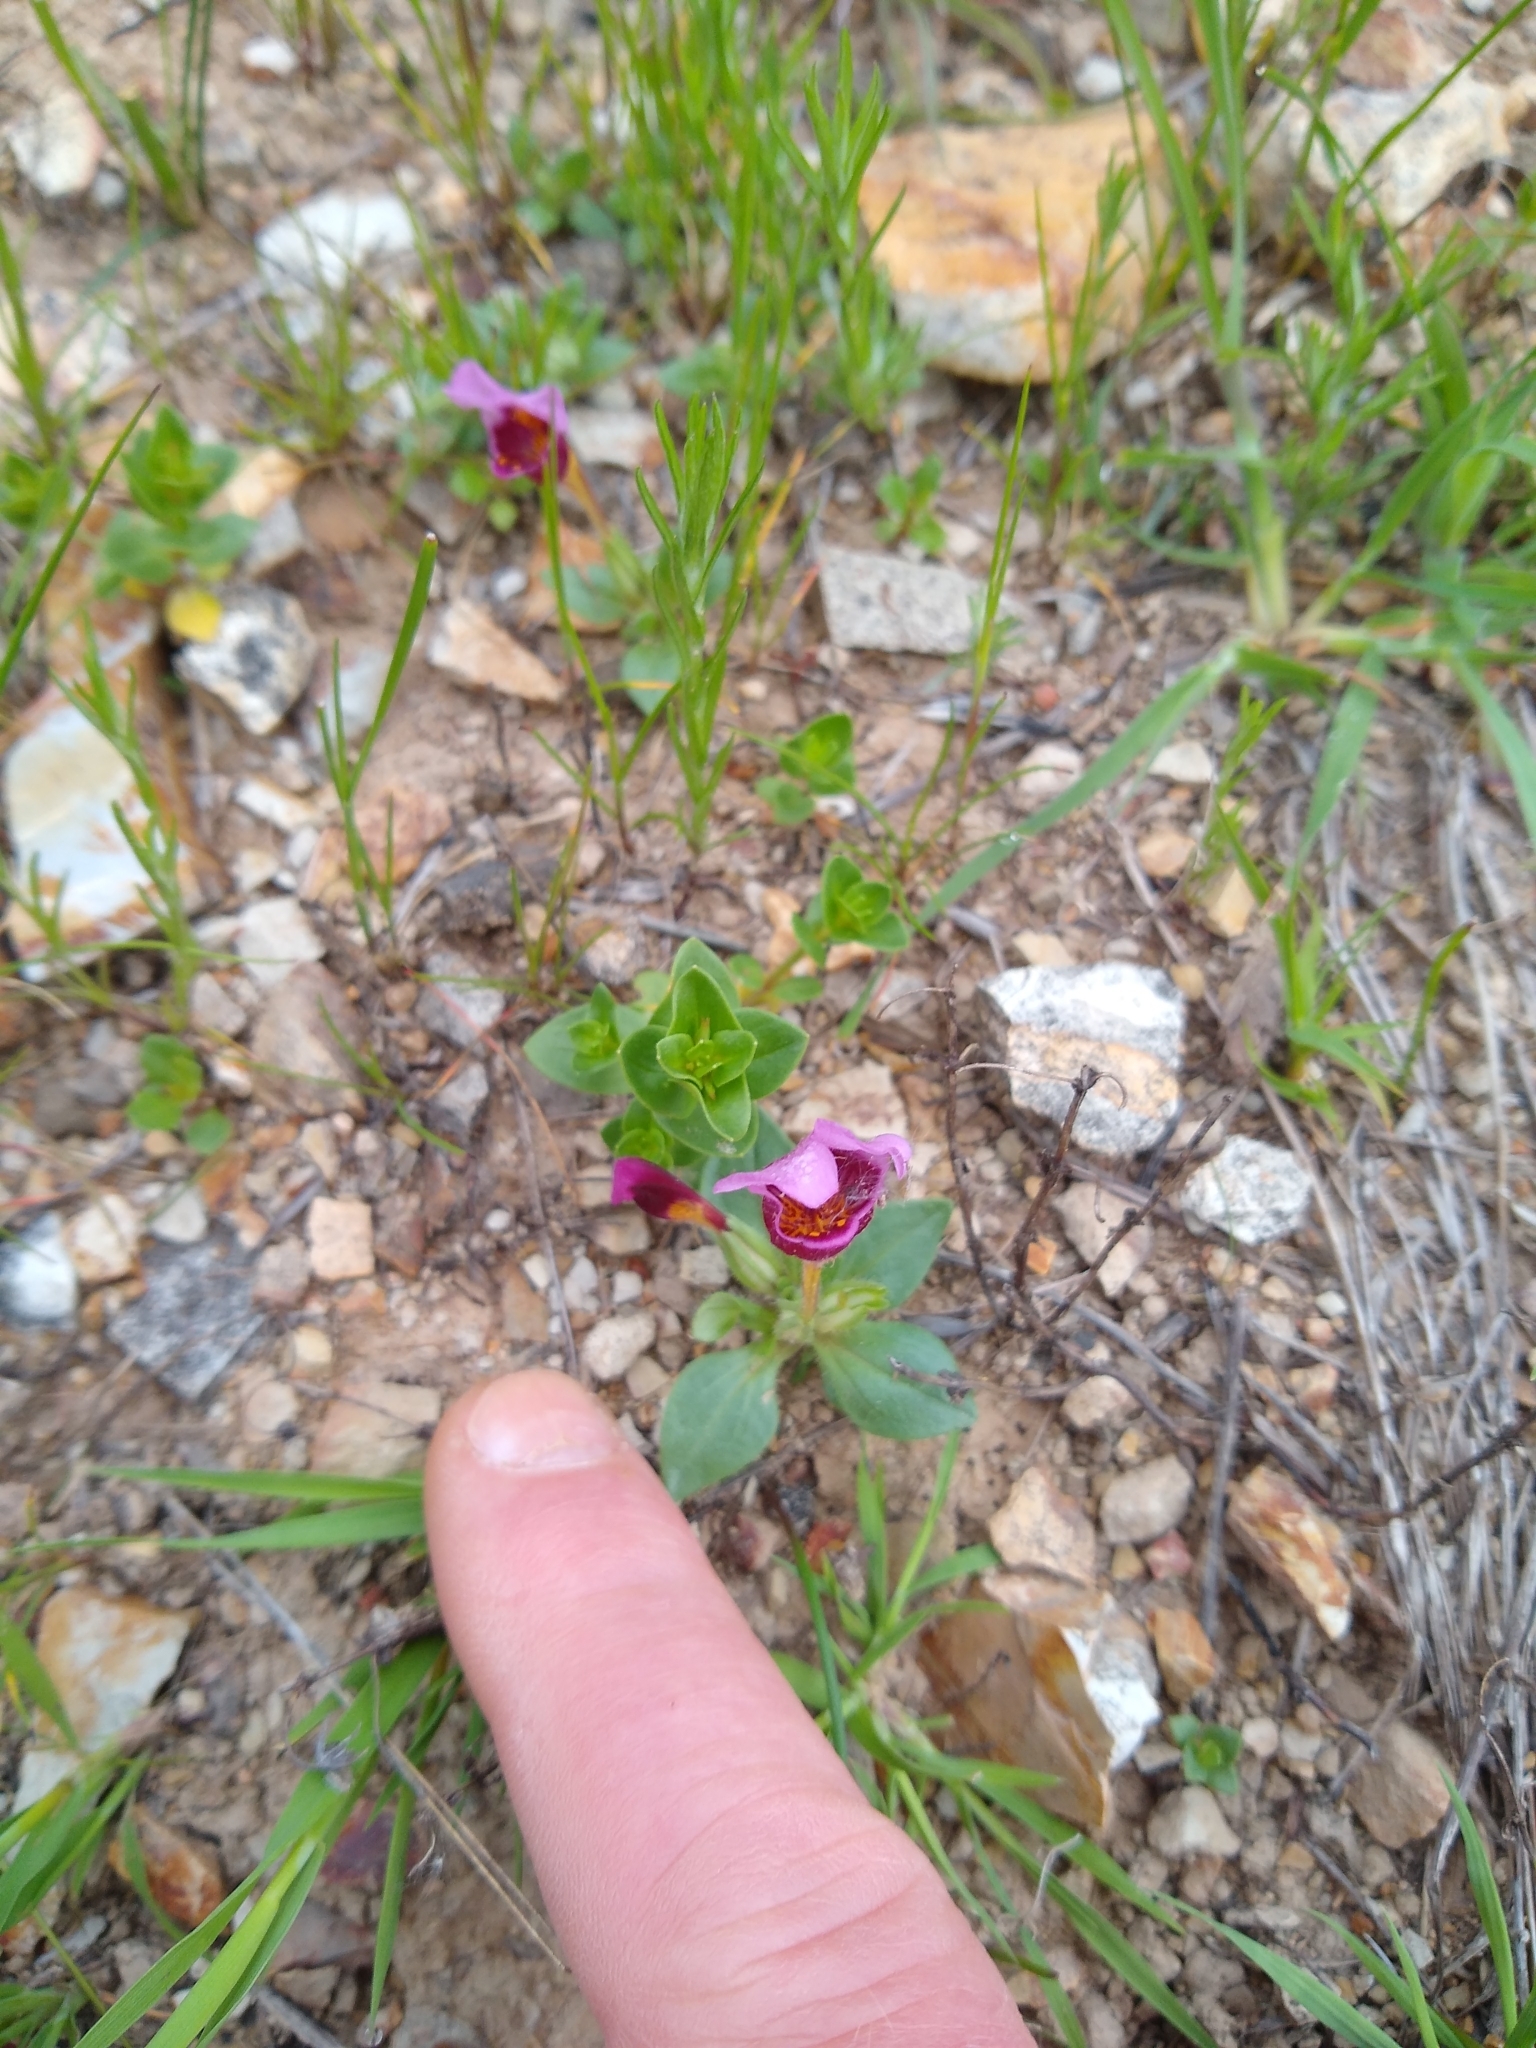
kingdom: Plantae
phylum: Tracheophyta
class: Magnoliopsida
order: Lamiales
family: Phrymaceae
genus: Diplacus
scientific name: Diplacus douglasii
